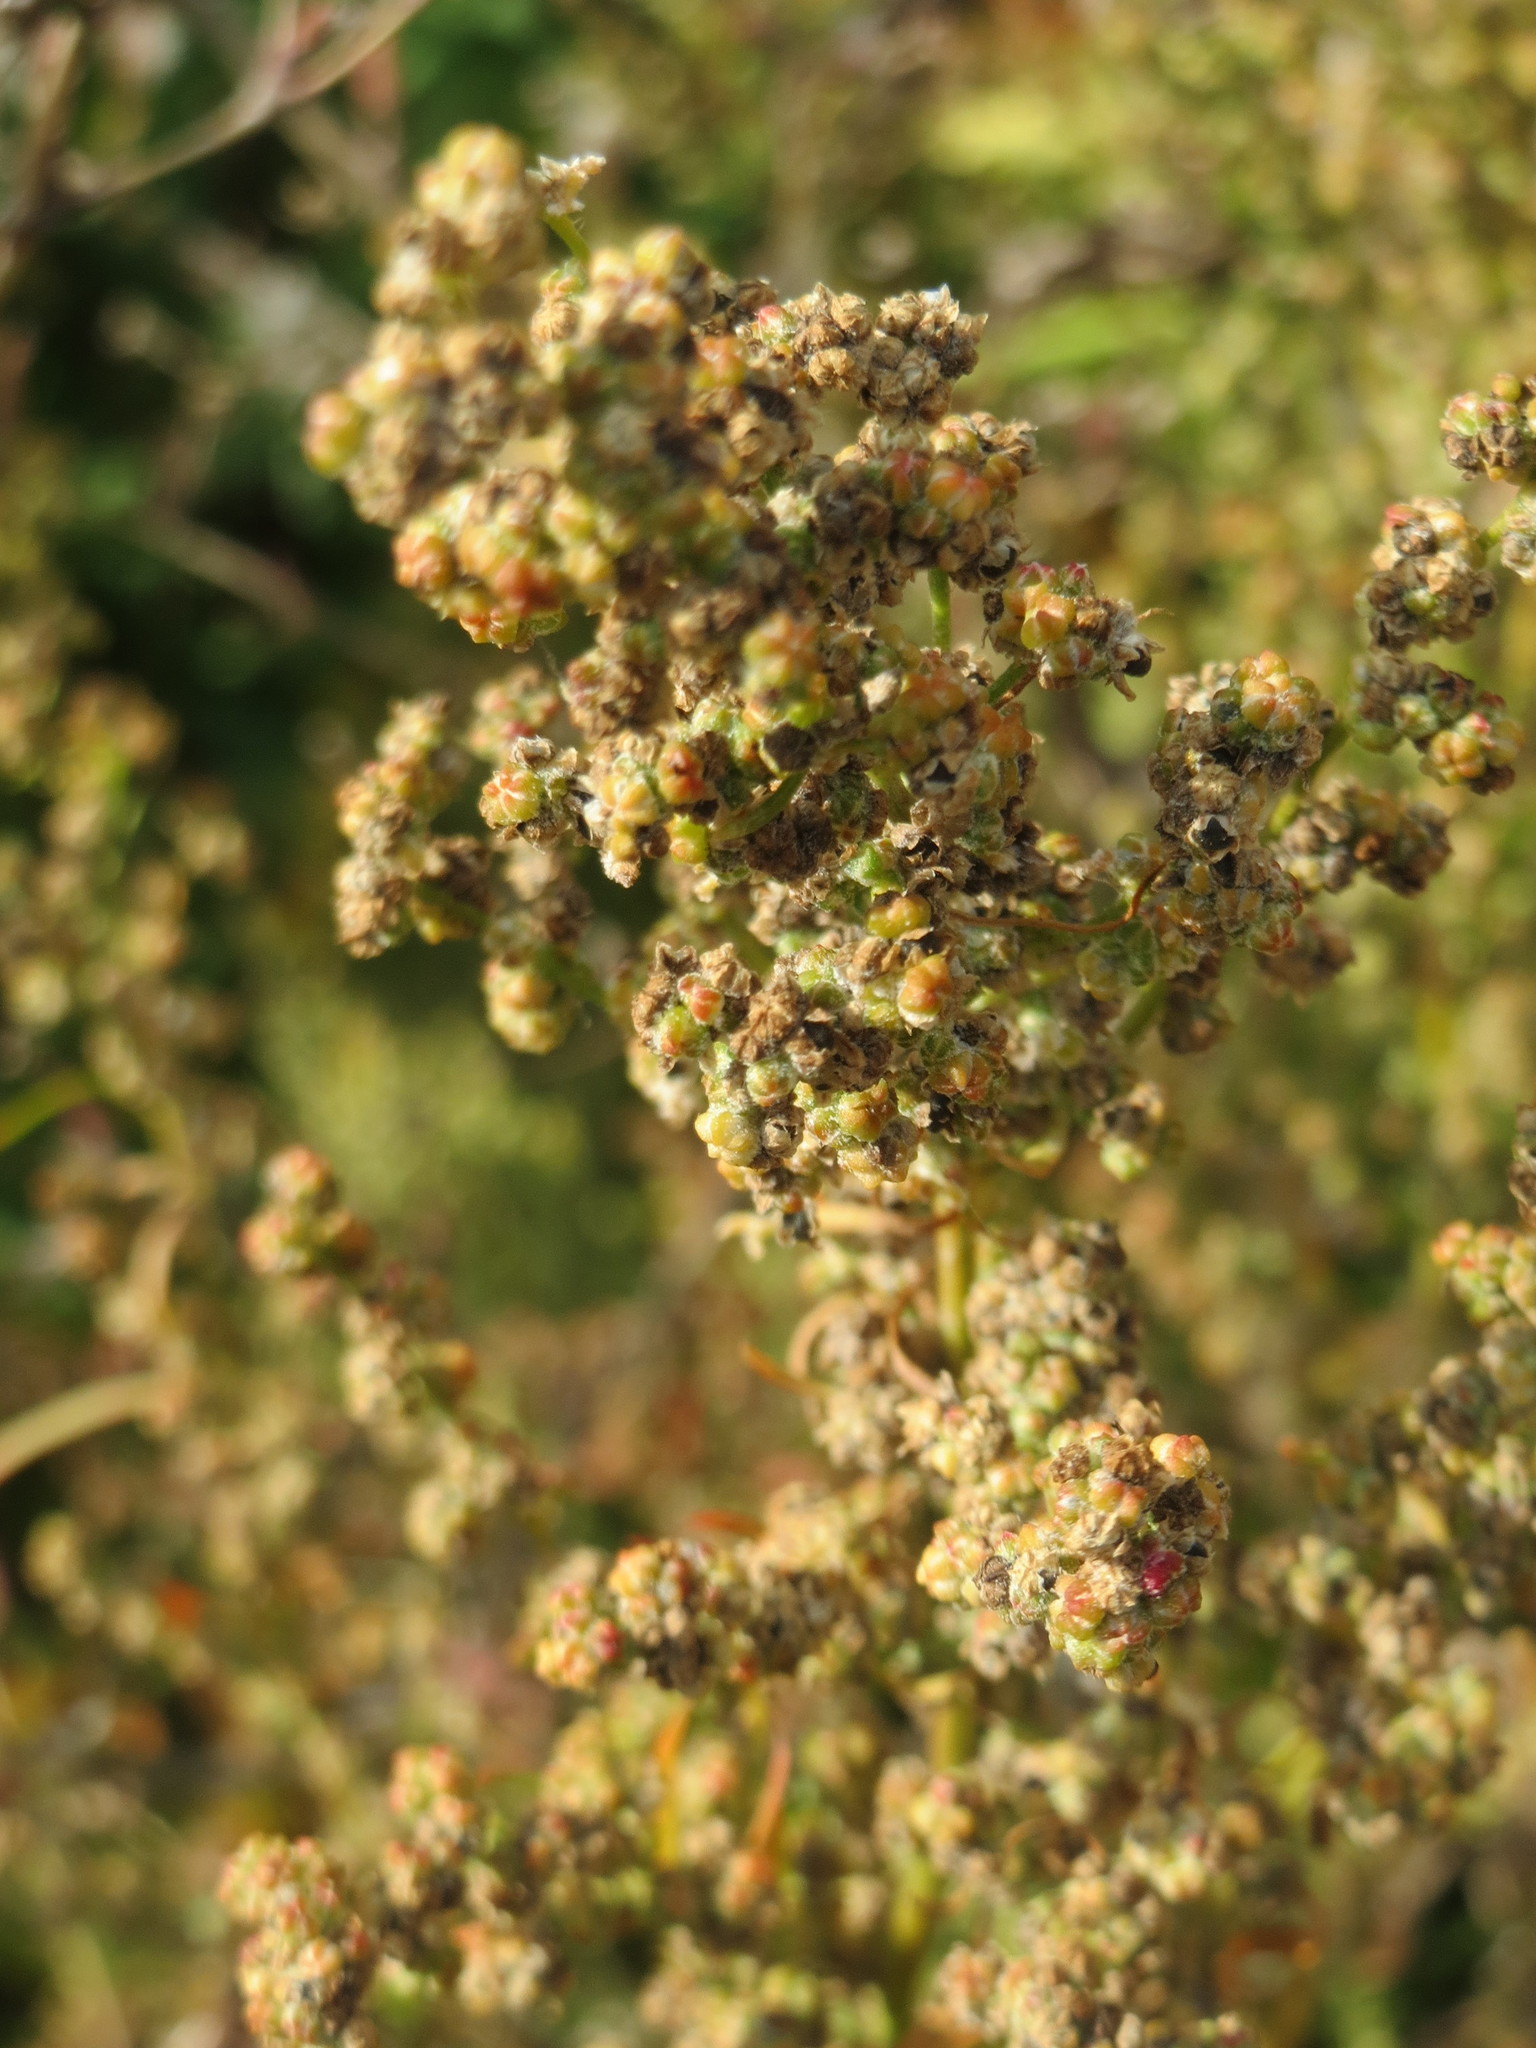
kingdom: Plantae
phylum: Tracheophyta
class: Magnoliopsida
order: Caryophyllales
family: Amaranthaceae
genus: Chenopodium
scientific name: Chenopodium album
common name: Fat-hen
